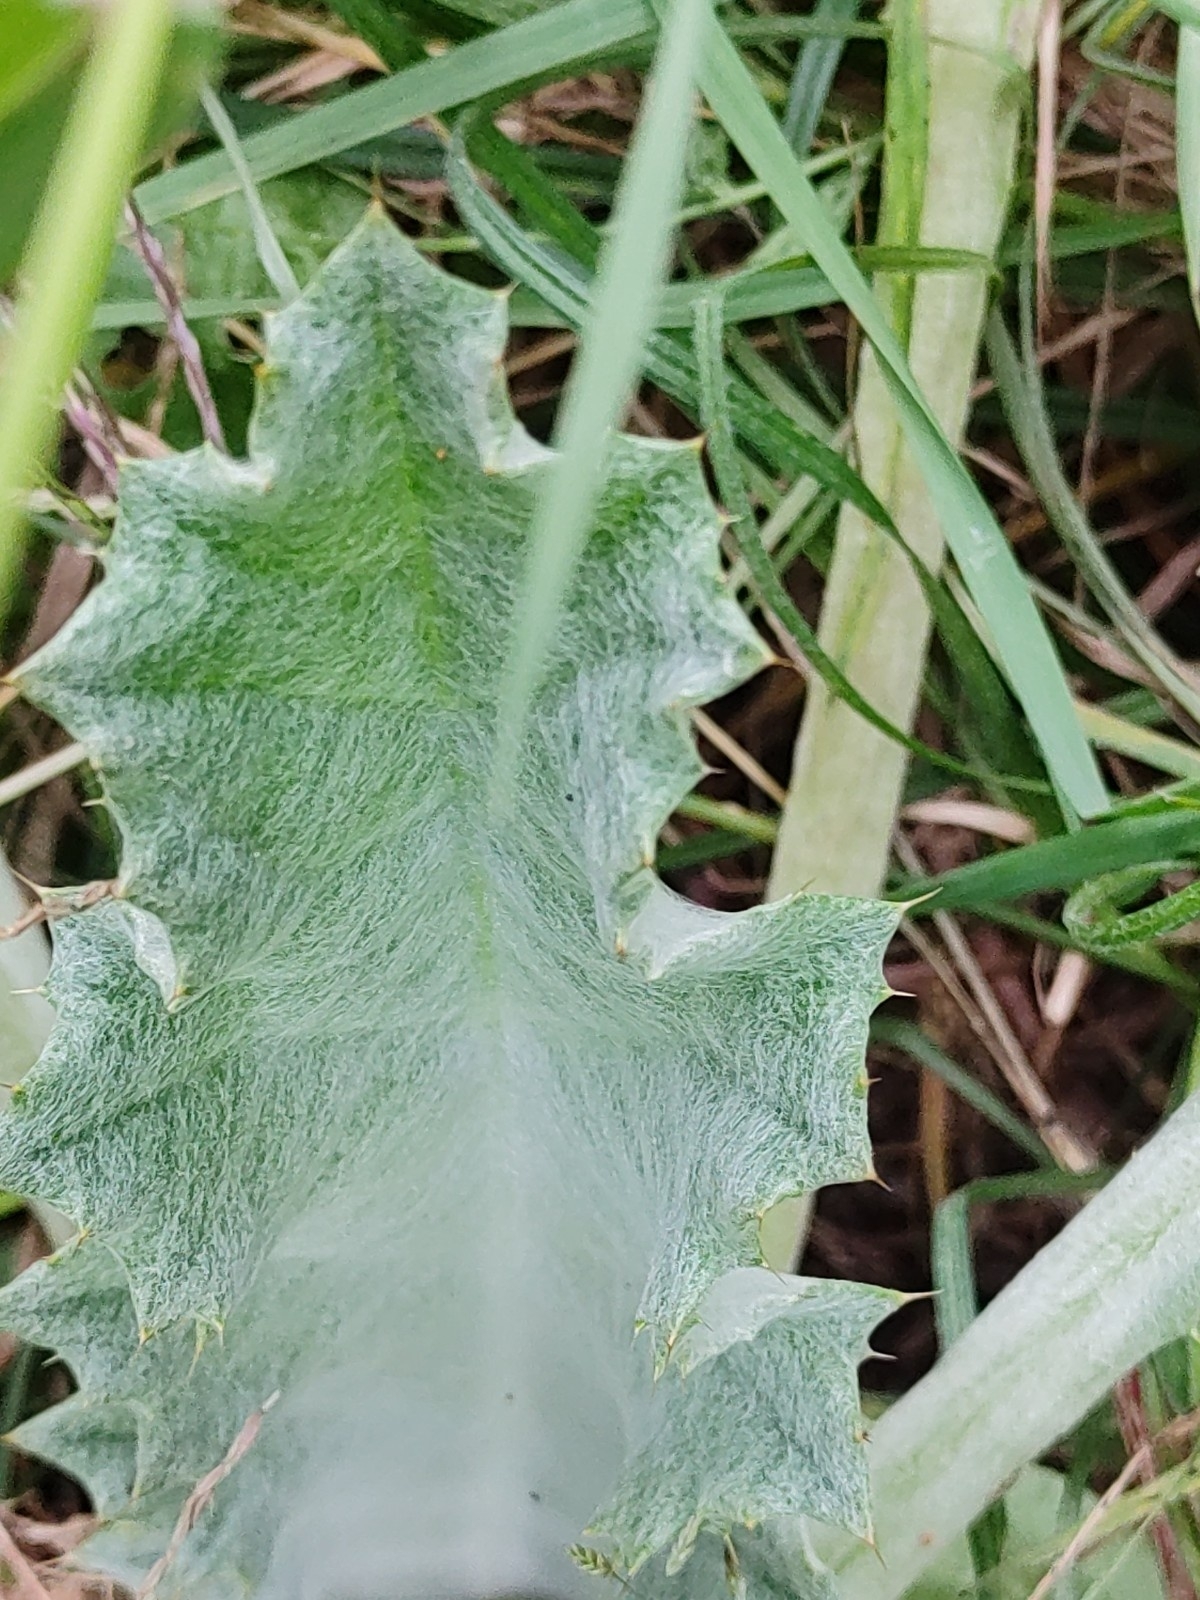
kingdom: Plantae
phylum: Tracheophyta
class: Magnoliopsida
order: Asterales
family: Asteraceae
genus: Onopordum
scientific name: Onopordum acanthium
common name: Scotch thistle
